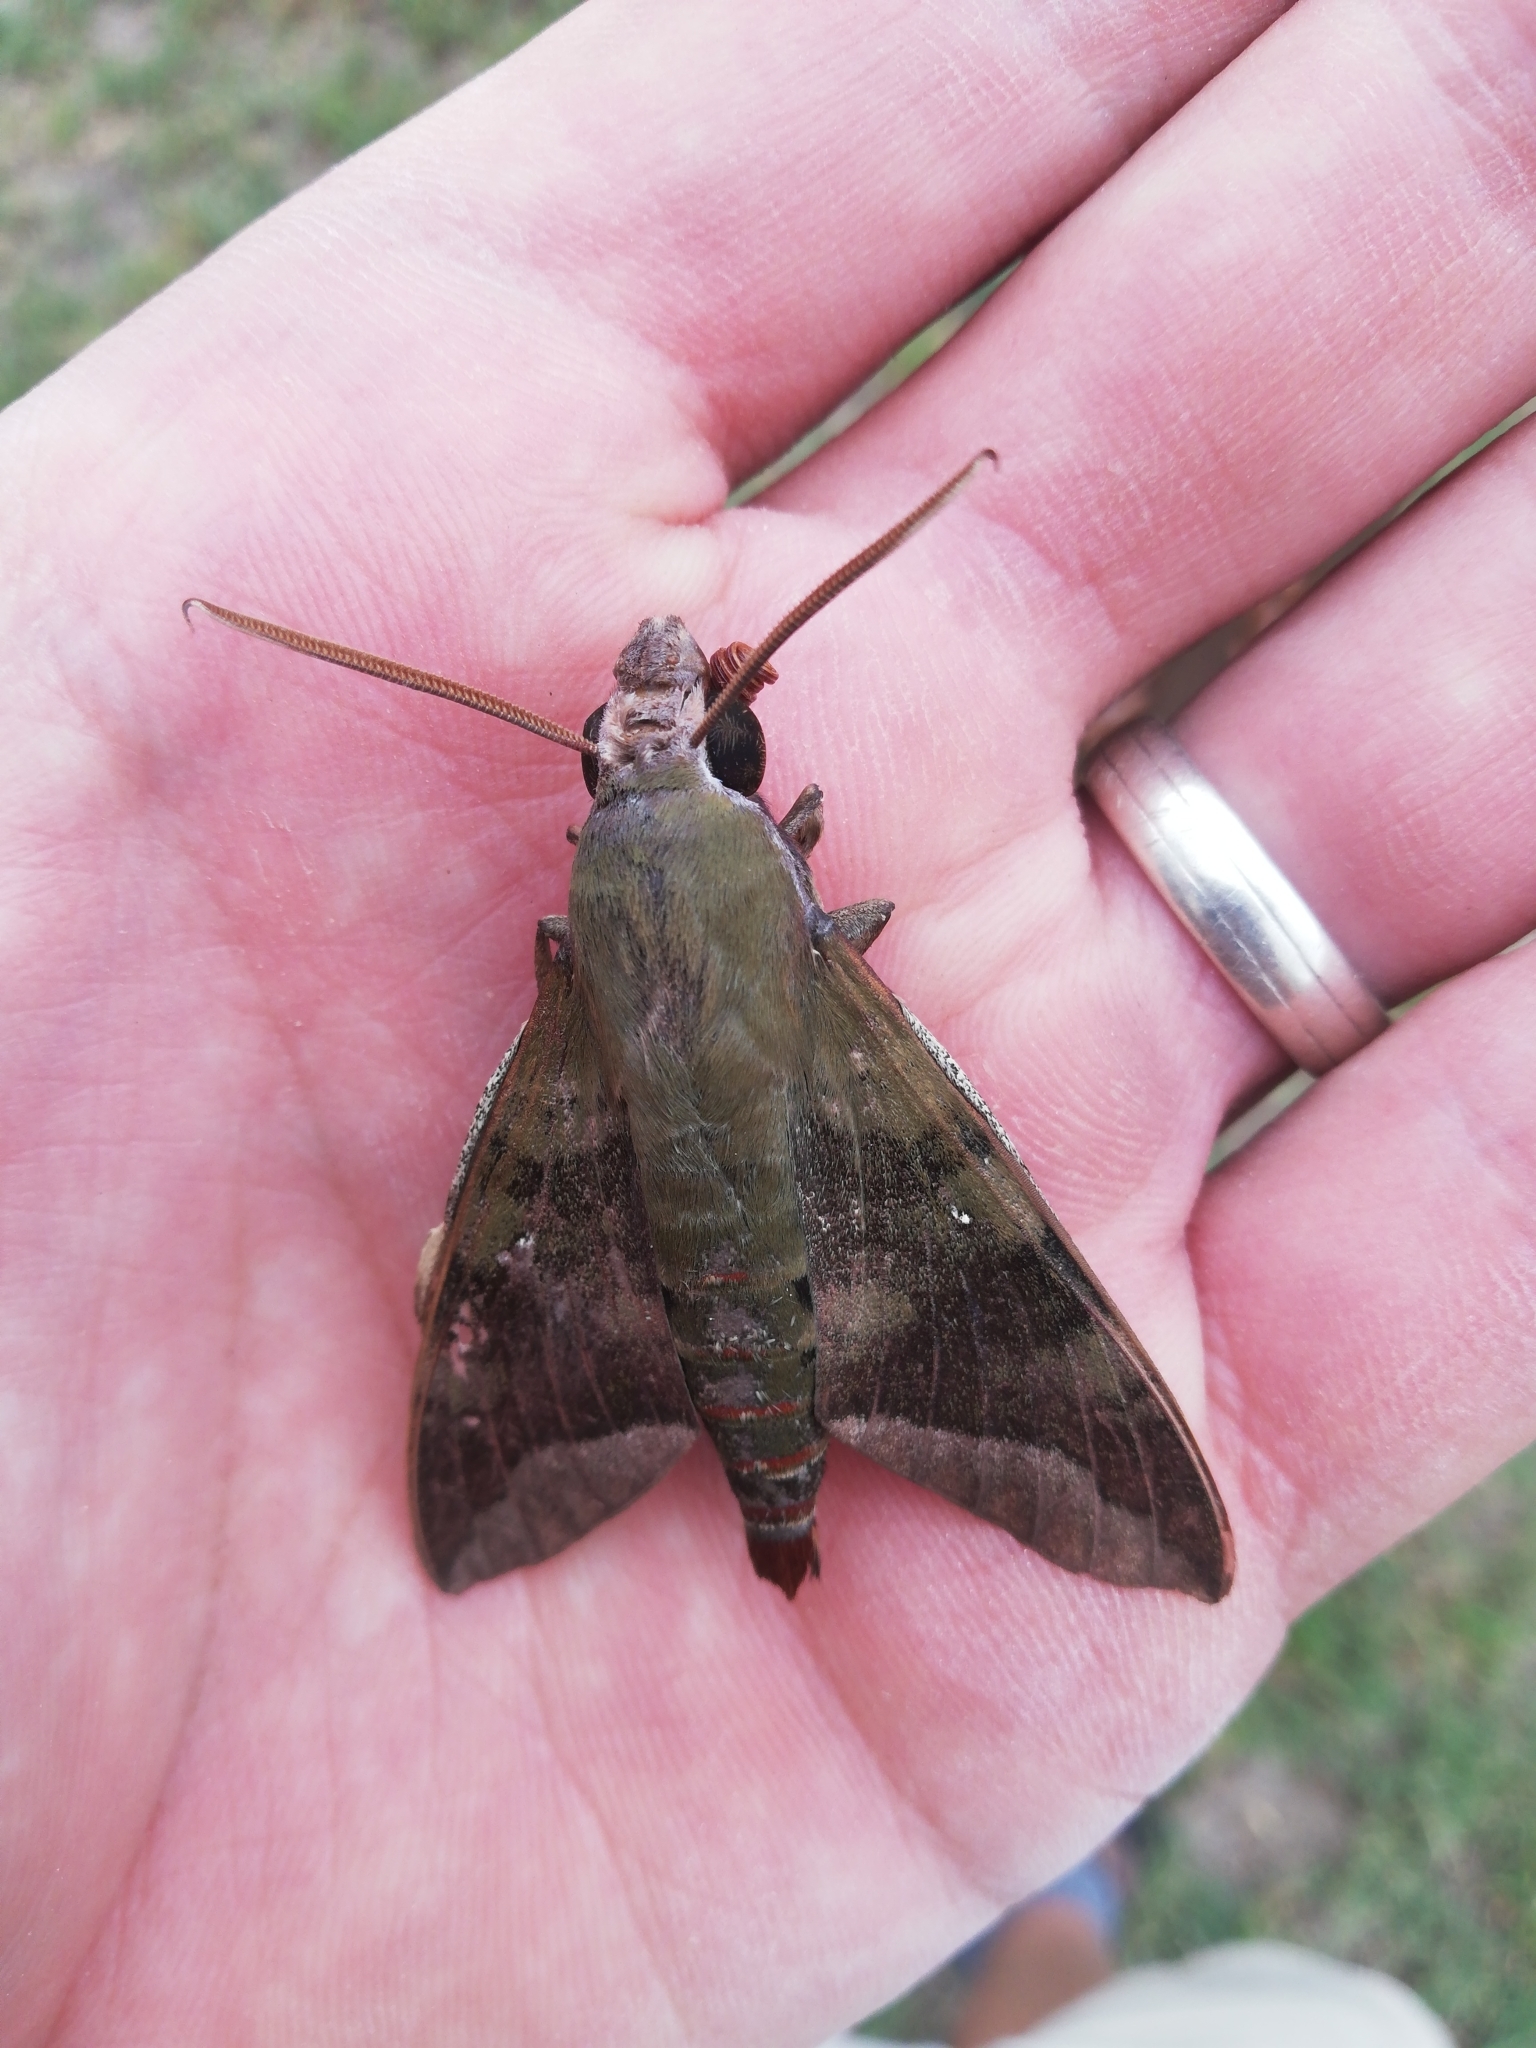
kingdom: Animalia
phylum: Arthropoda
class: Insecta
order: Lepidoptera
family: Sphingidae
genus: Nephele
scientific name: Nephele comma
